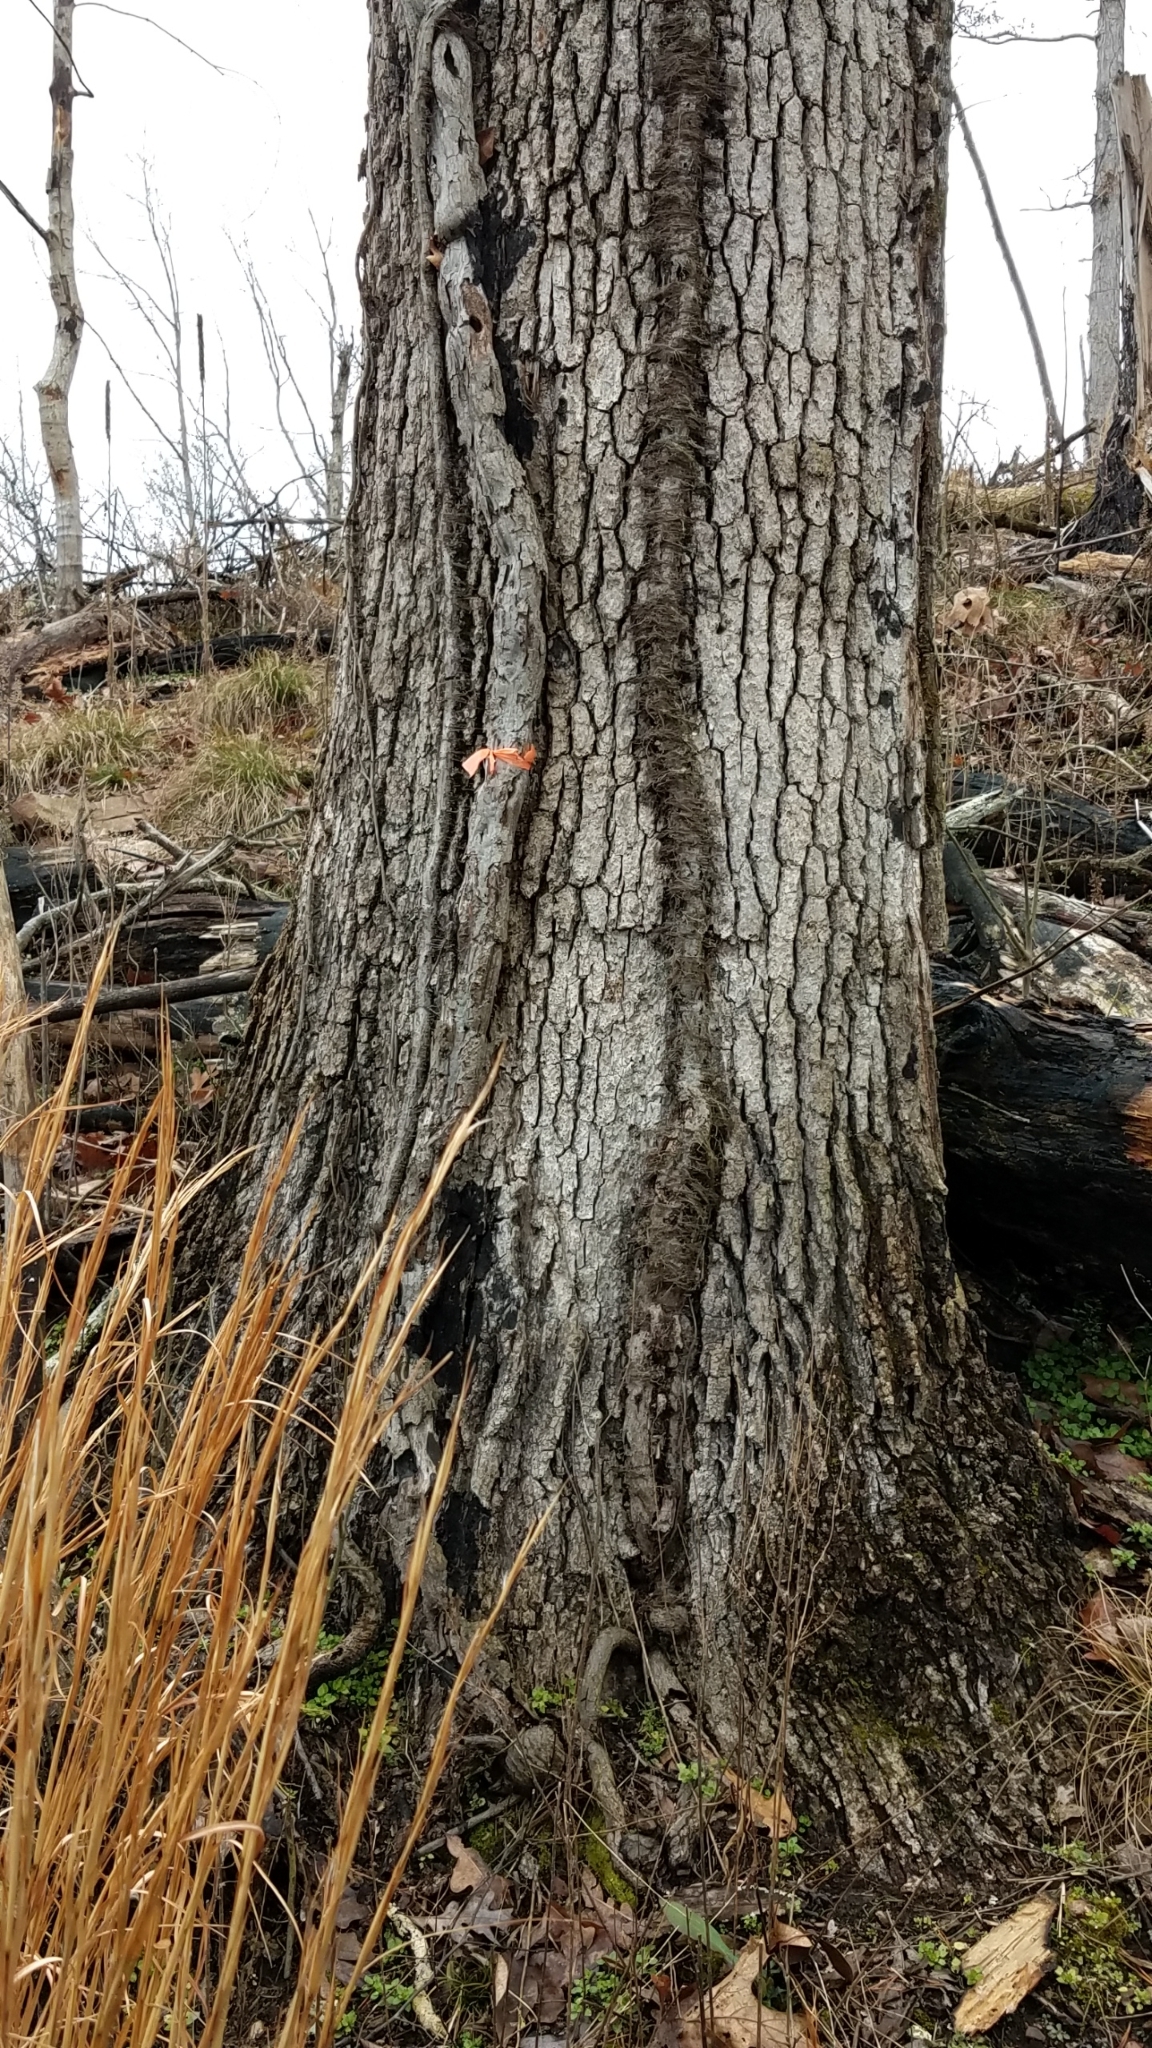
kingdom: Plantae
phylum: Tracheophyta
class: Magnoliopsida
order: Fagales
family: Fagaceae
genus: Quercus
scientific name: Quercus stellata
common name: Post oak
